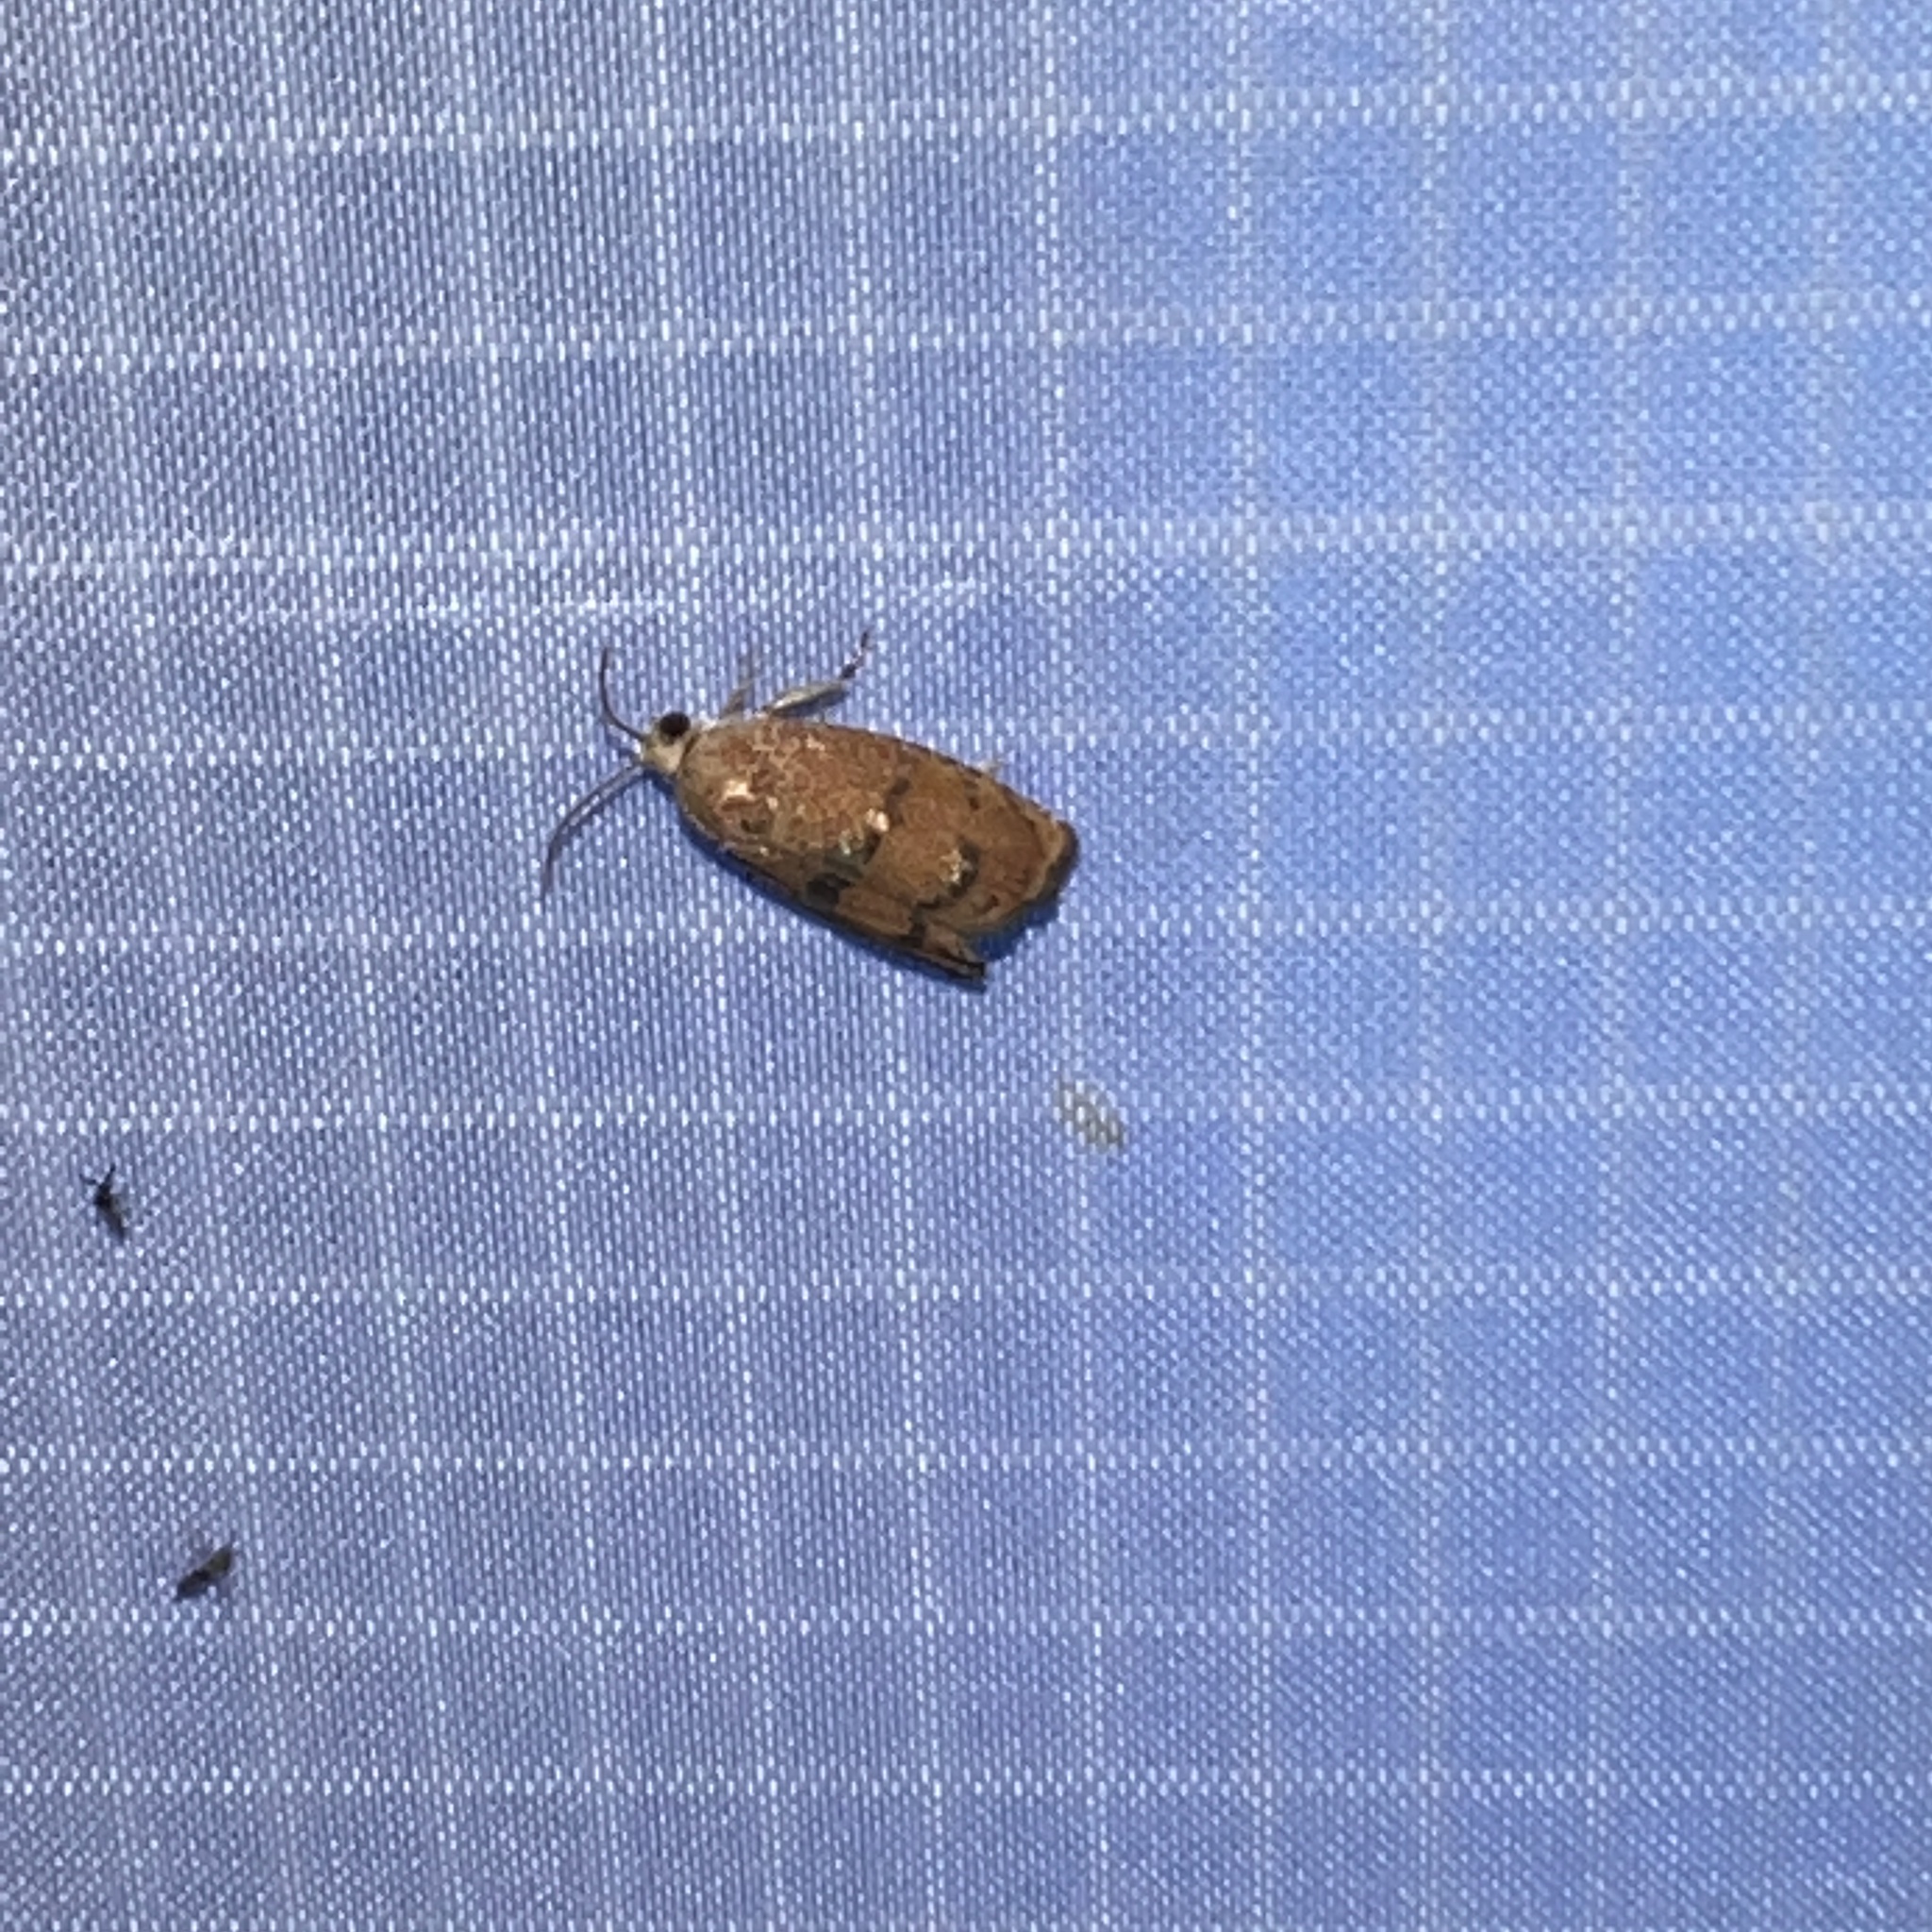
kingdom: Animalia
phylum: Arthropoda
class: Insecta
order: Lepidoptera
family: Tortricidae
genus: Cydia
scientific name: Cydia latiferreana
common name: Filbertworm moth
